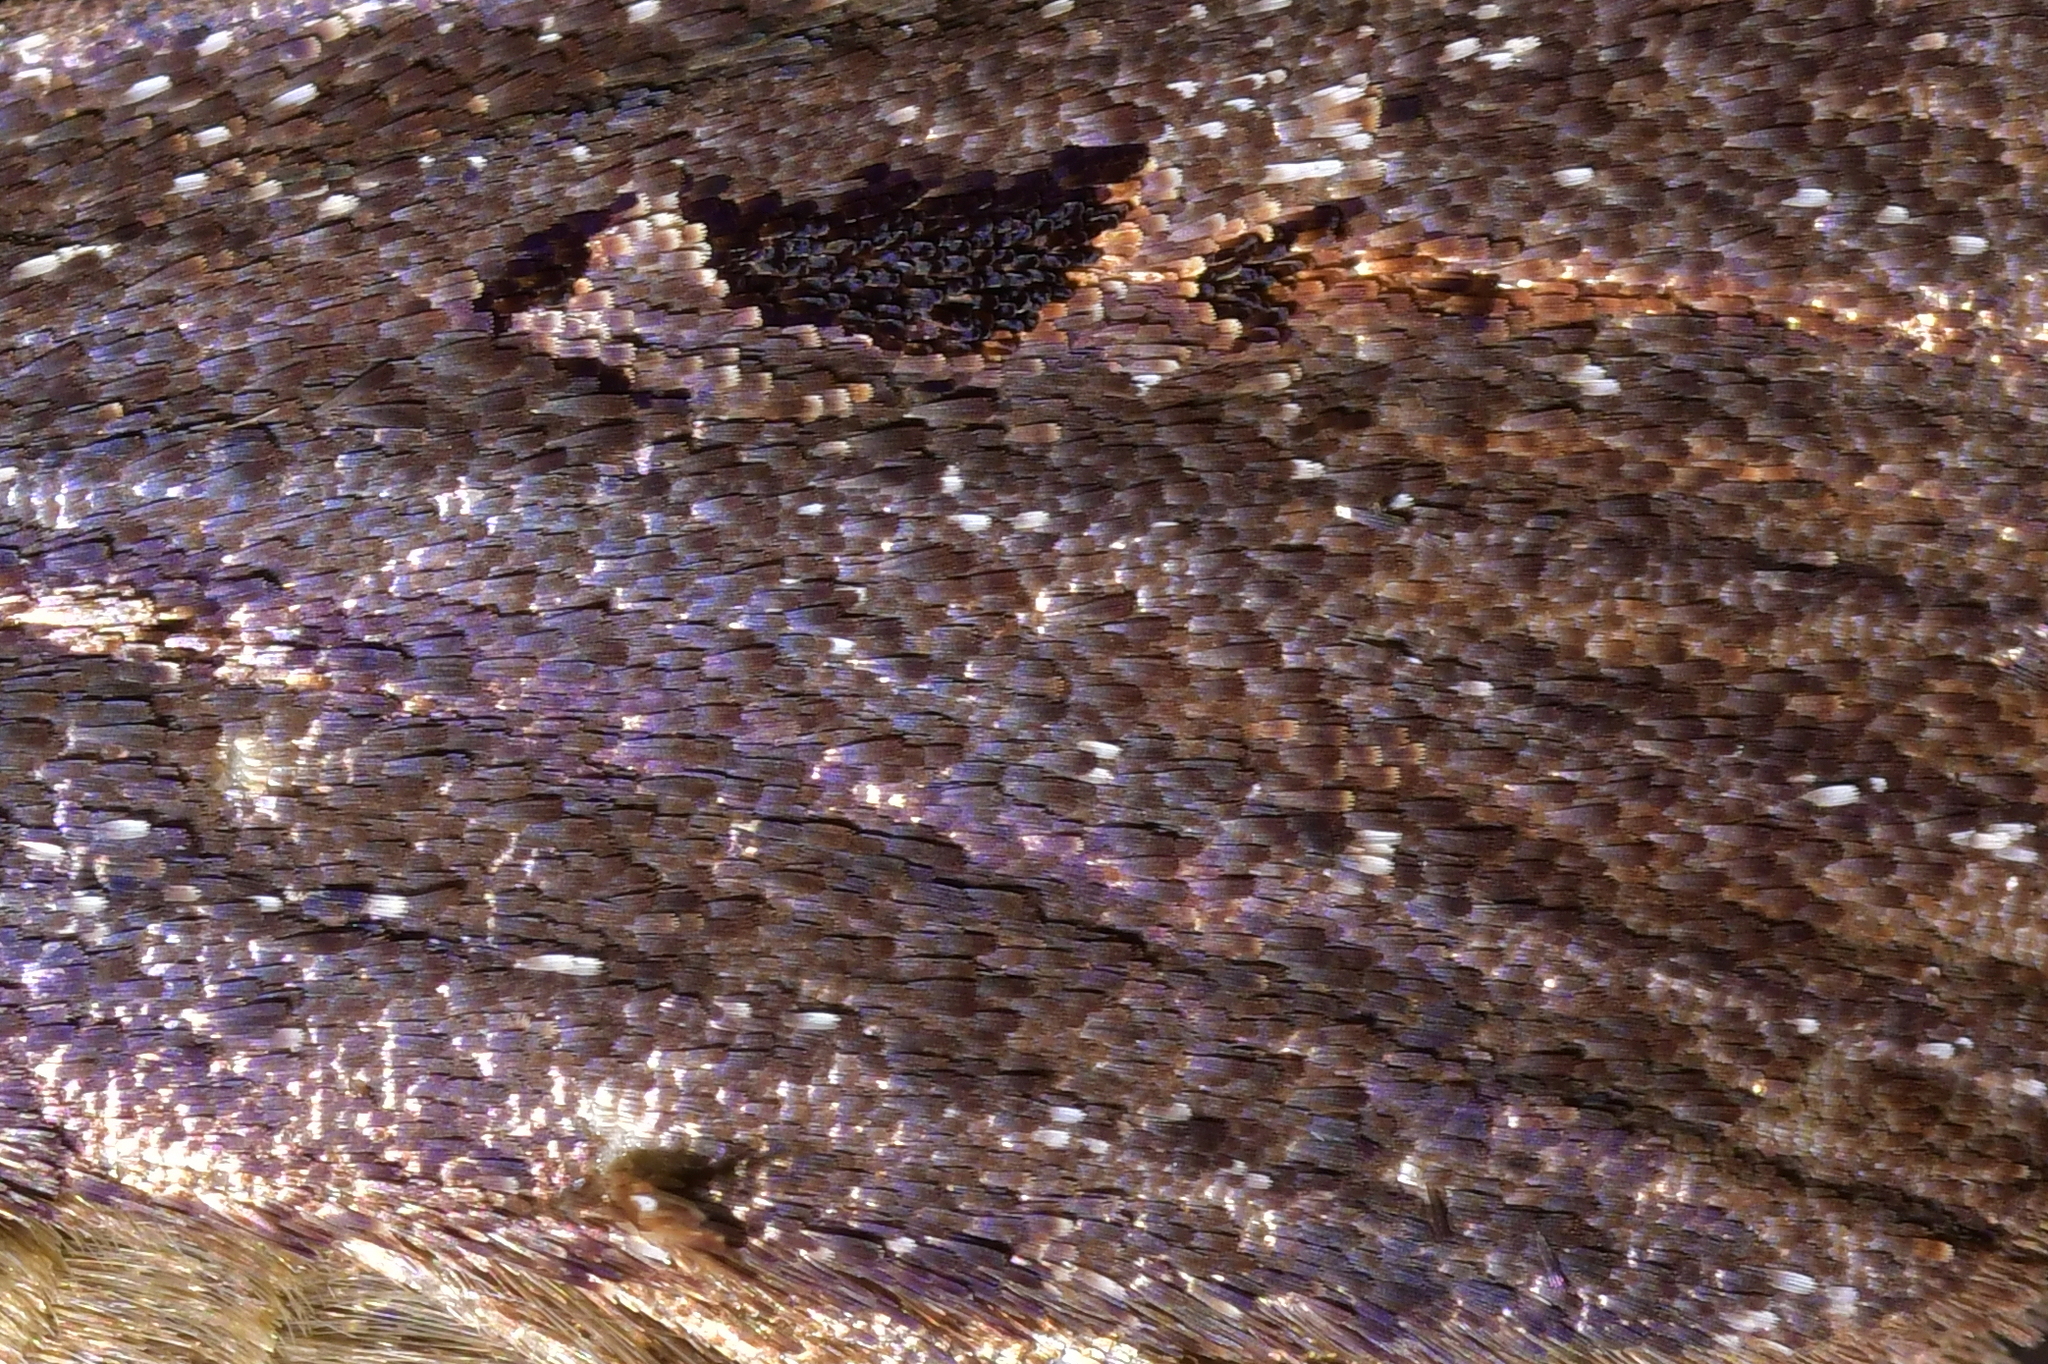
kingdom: Animalia
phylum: Arthropoda
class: Insecta
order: Lepidoptera
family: Noctuidae
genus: Austramathes
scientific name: Austramathes purpurea
